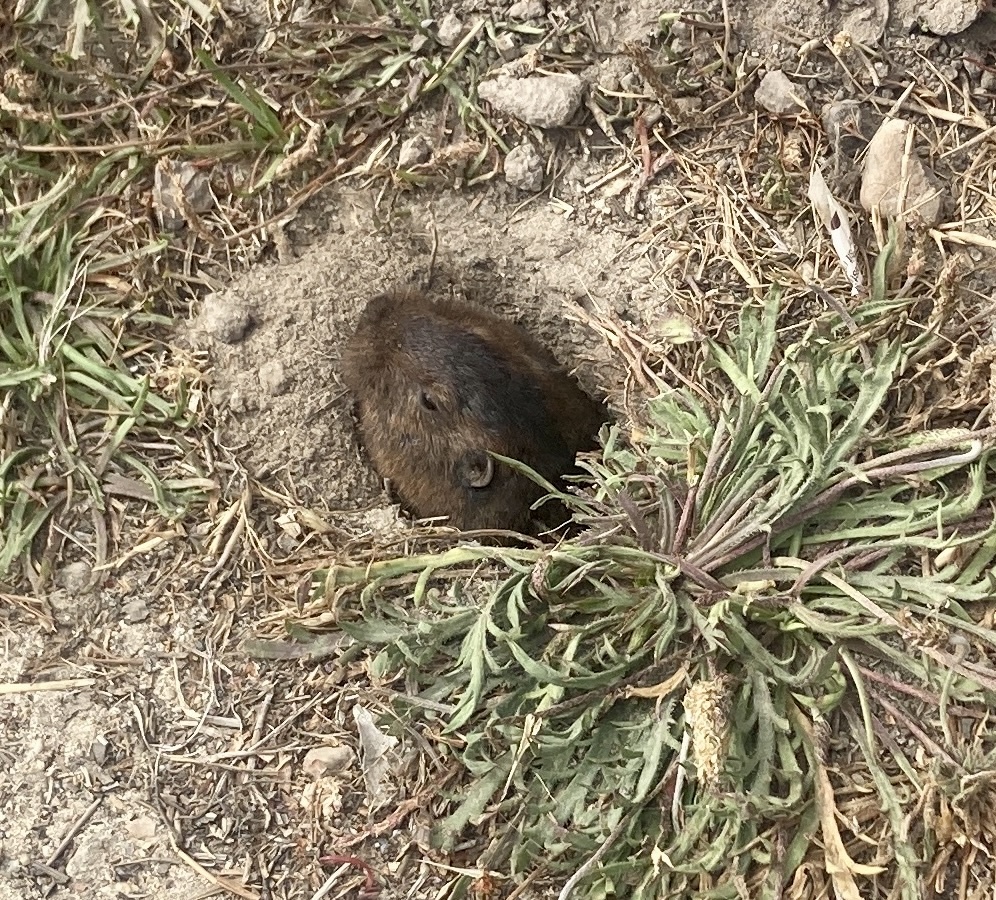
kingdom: Animalia
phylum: Chordata
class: Mammalia
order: Rodentia
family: Geomyidae
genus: Thomomys
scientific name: Thomomys bottae
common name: Botta's pocket gopher
